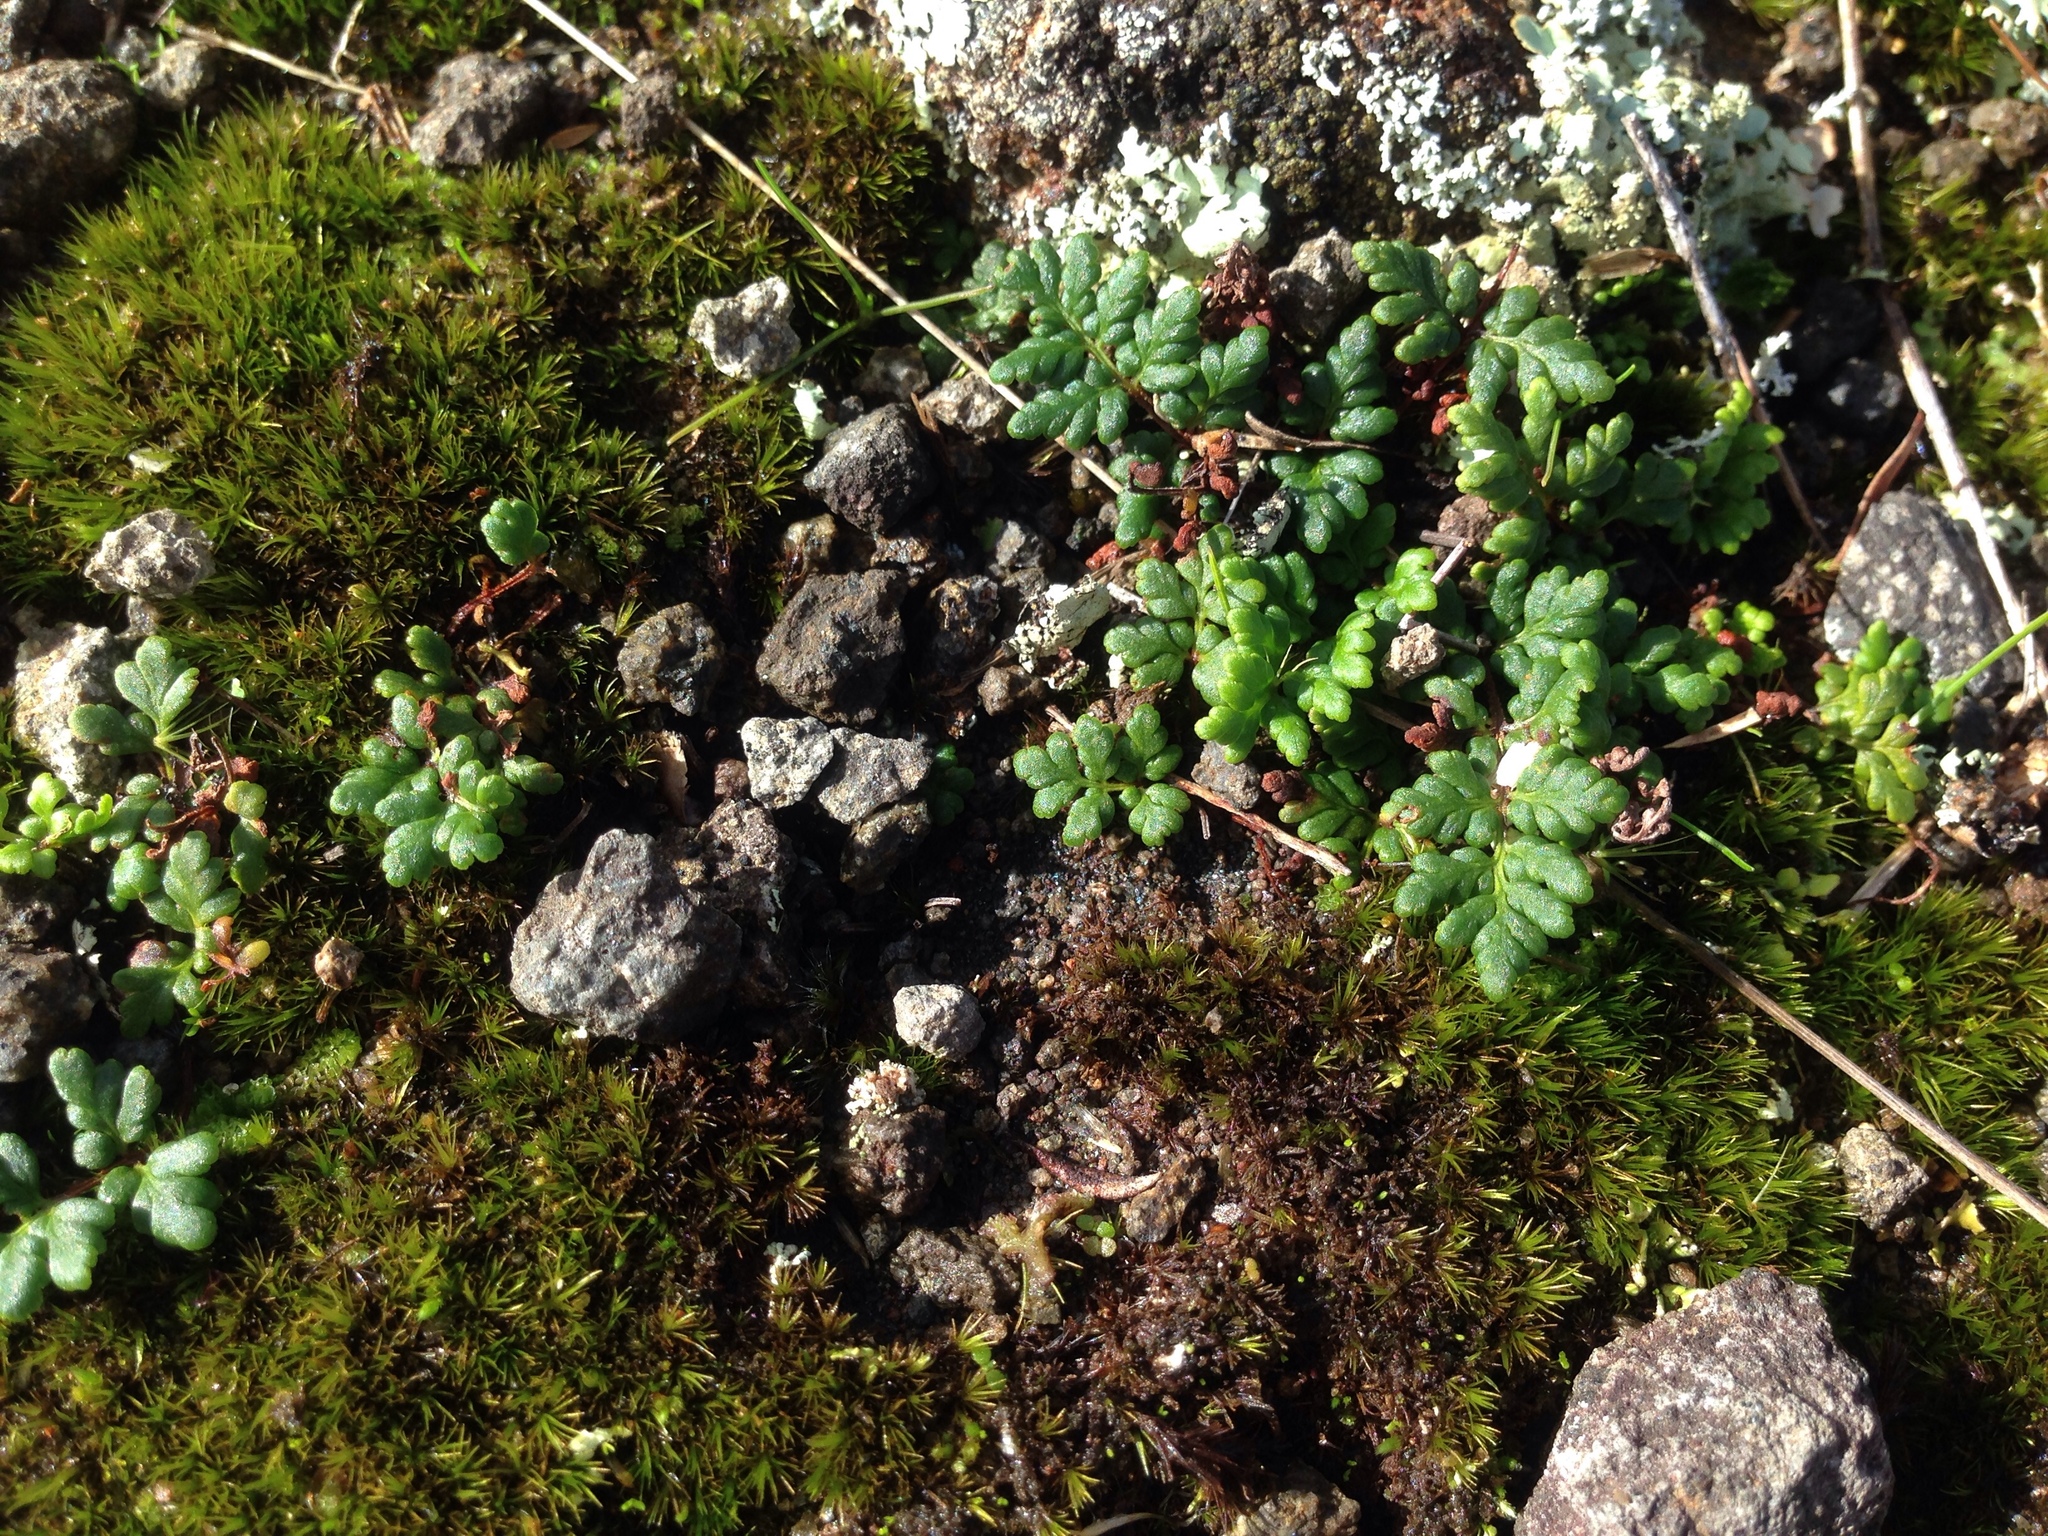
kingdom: Plantae
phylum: Tracheophyta
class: Polypodiopsida
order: Polypodiales
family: Pteridaceae
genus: Cheilanthes
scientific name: Cheilanthes sieberi
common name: Mulga fern
